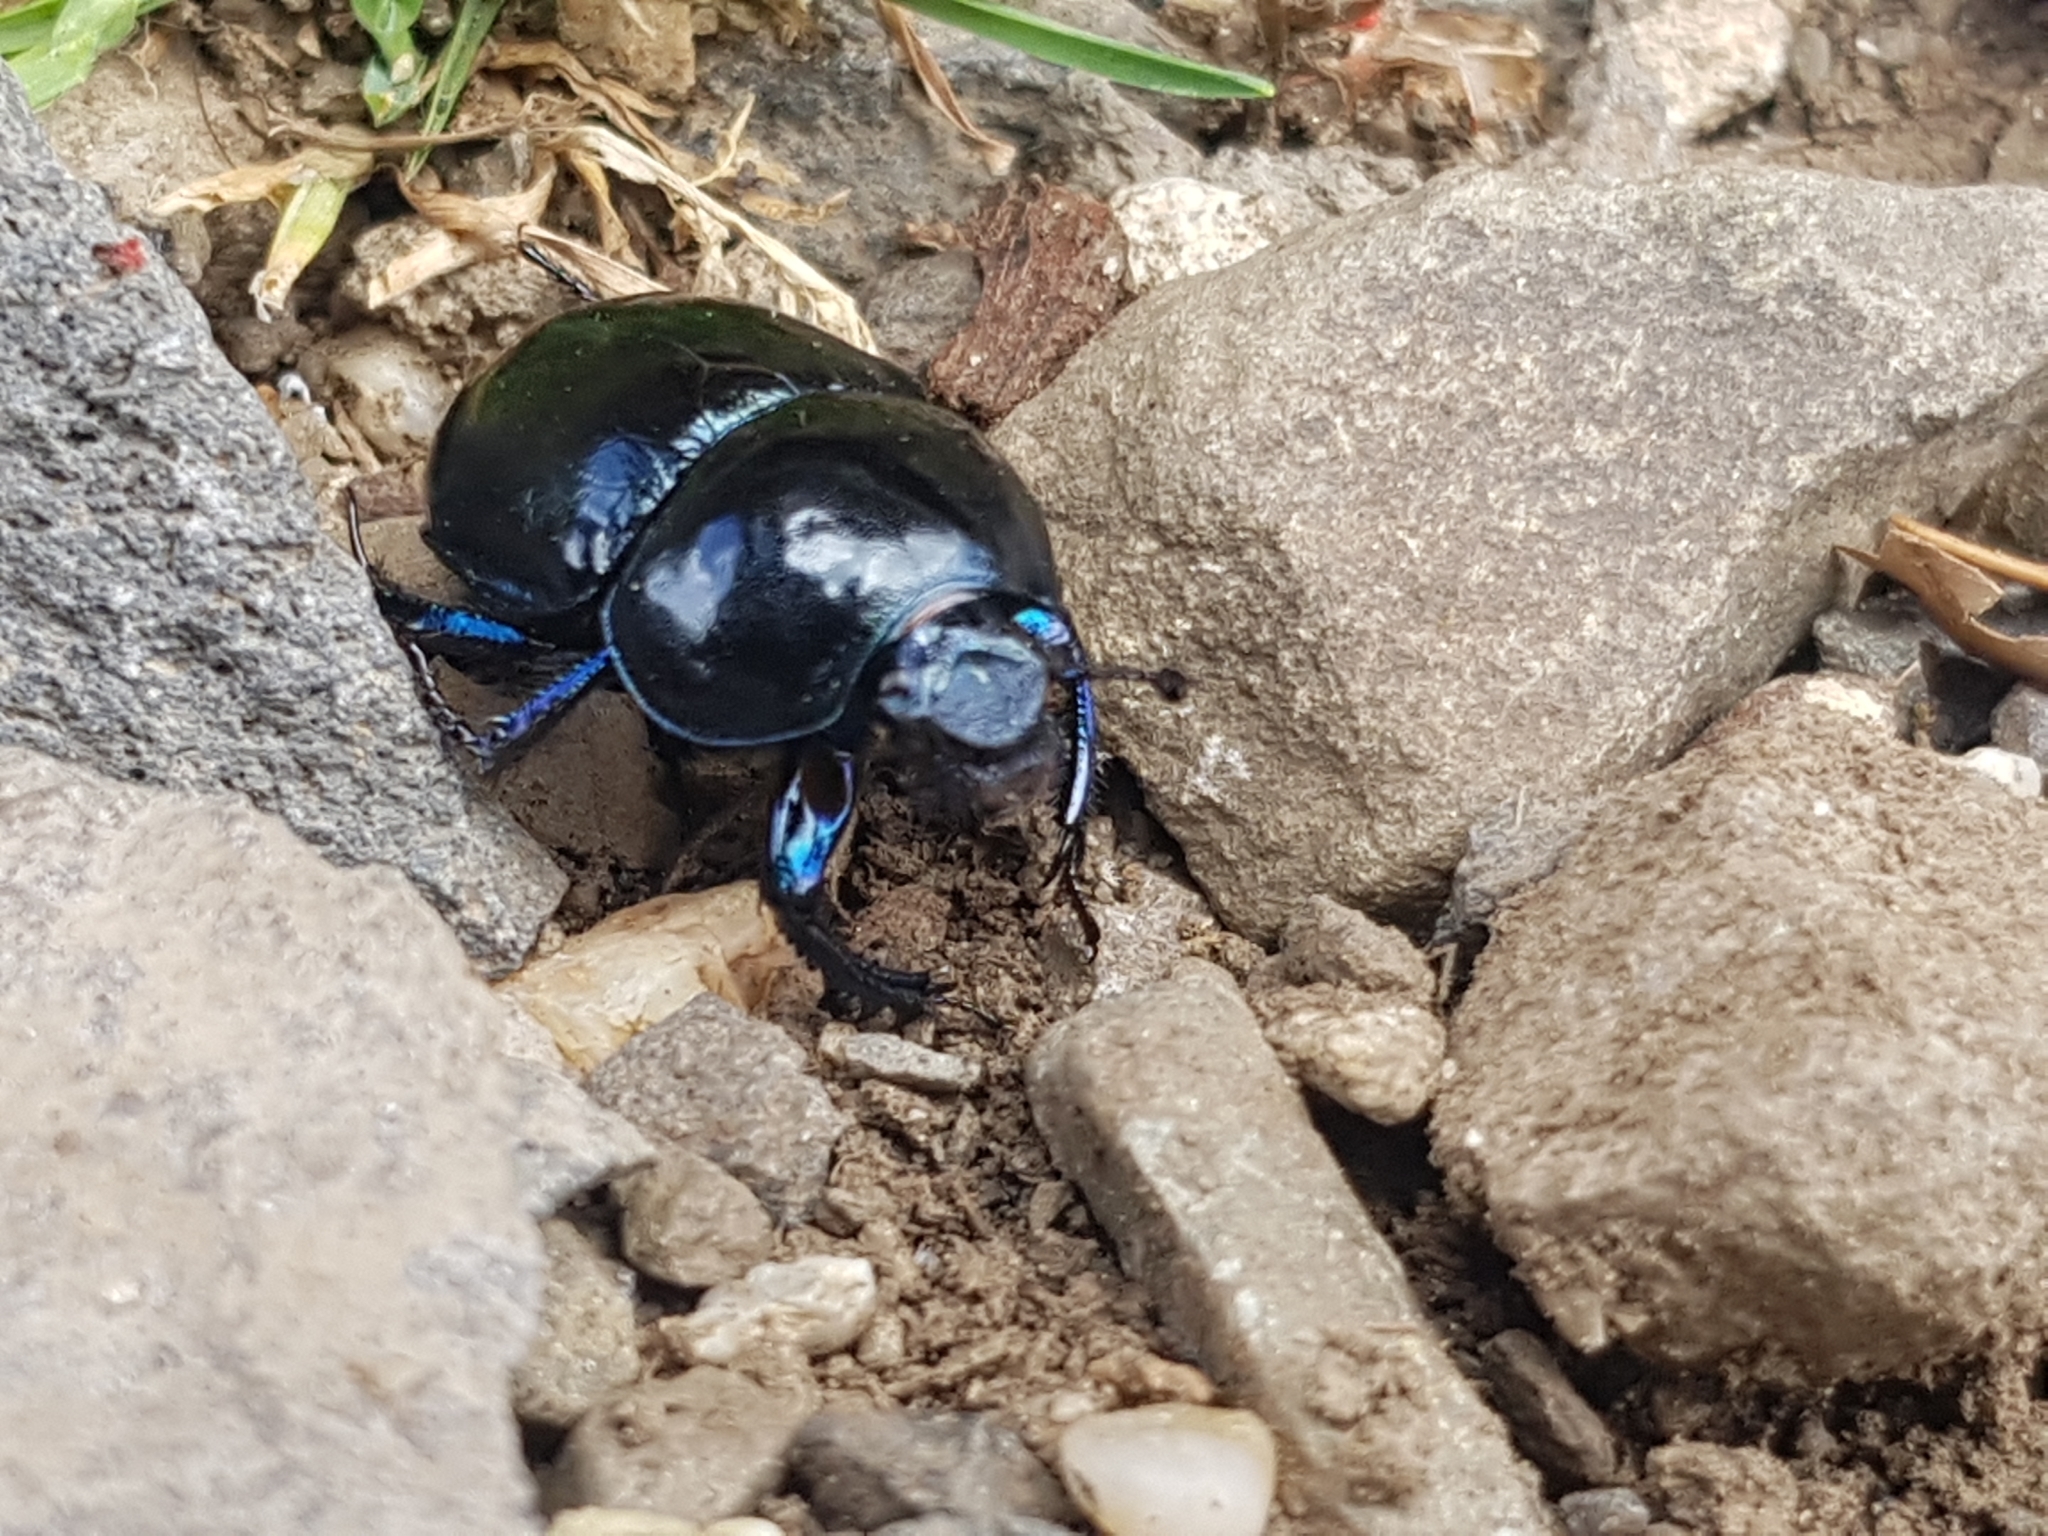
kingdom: Animalia
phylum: Arthropoda
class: Insecta
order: Coleoptera
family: Geotrupidae
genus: Trypocopris
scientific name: Trypocopris vernalis
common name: Spring dumbledor
